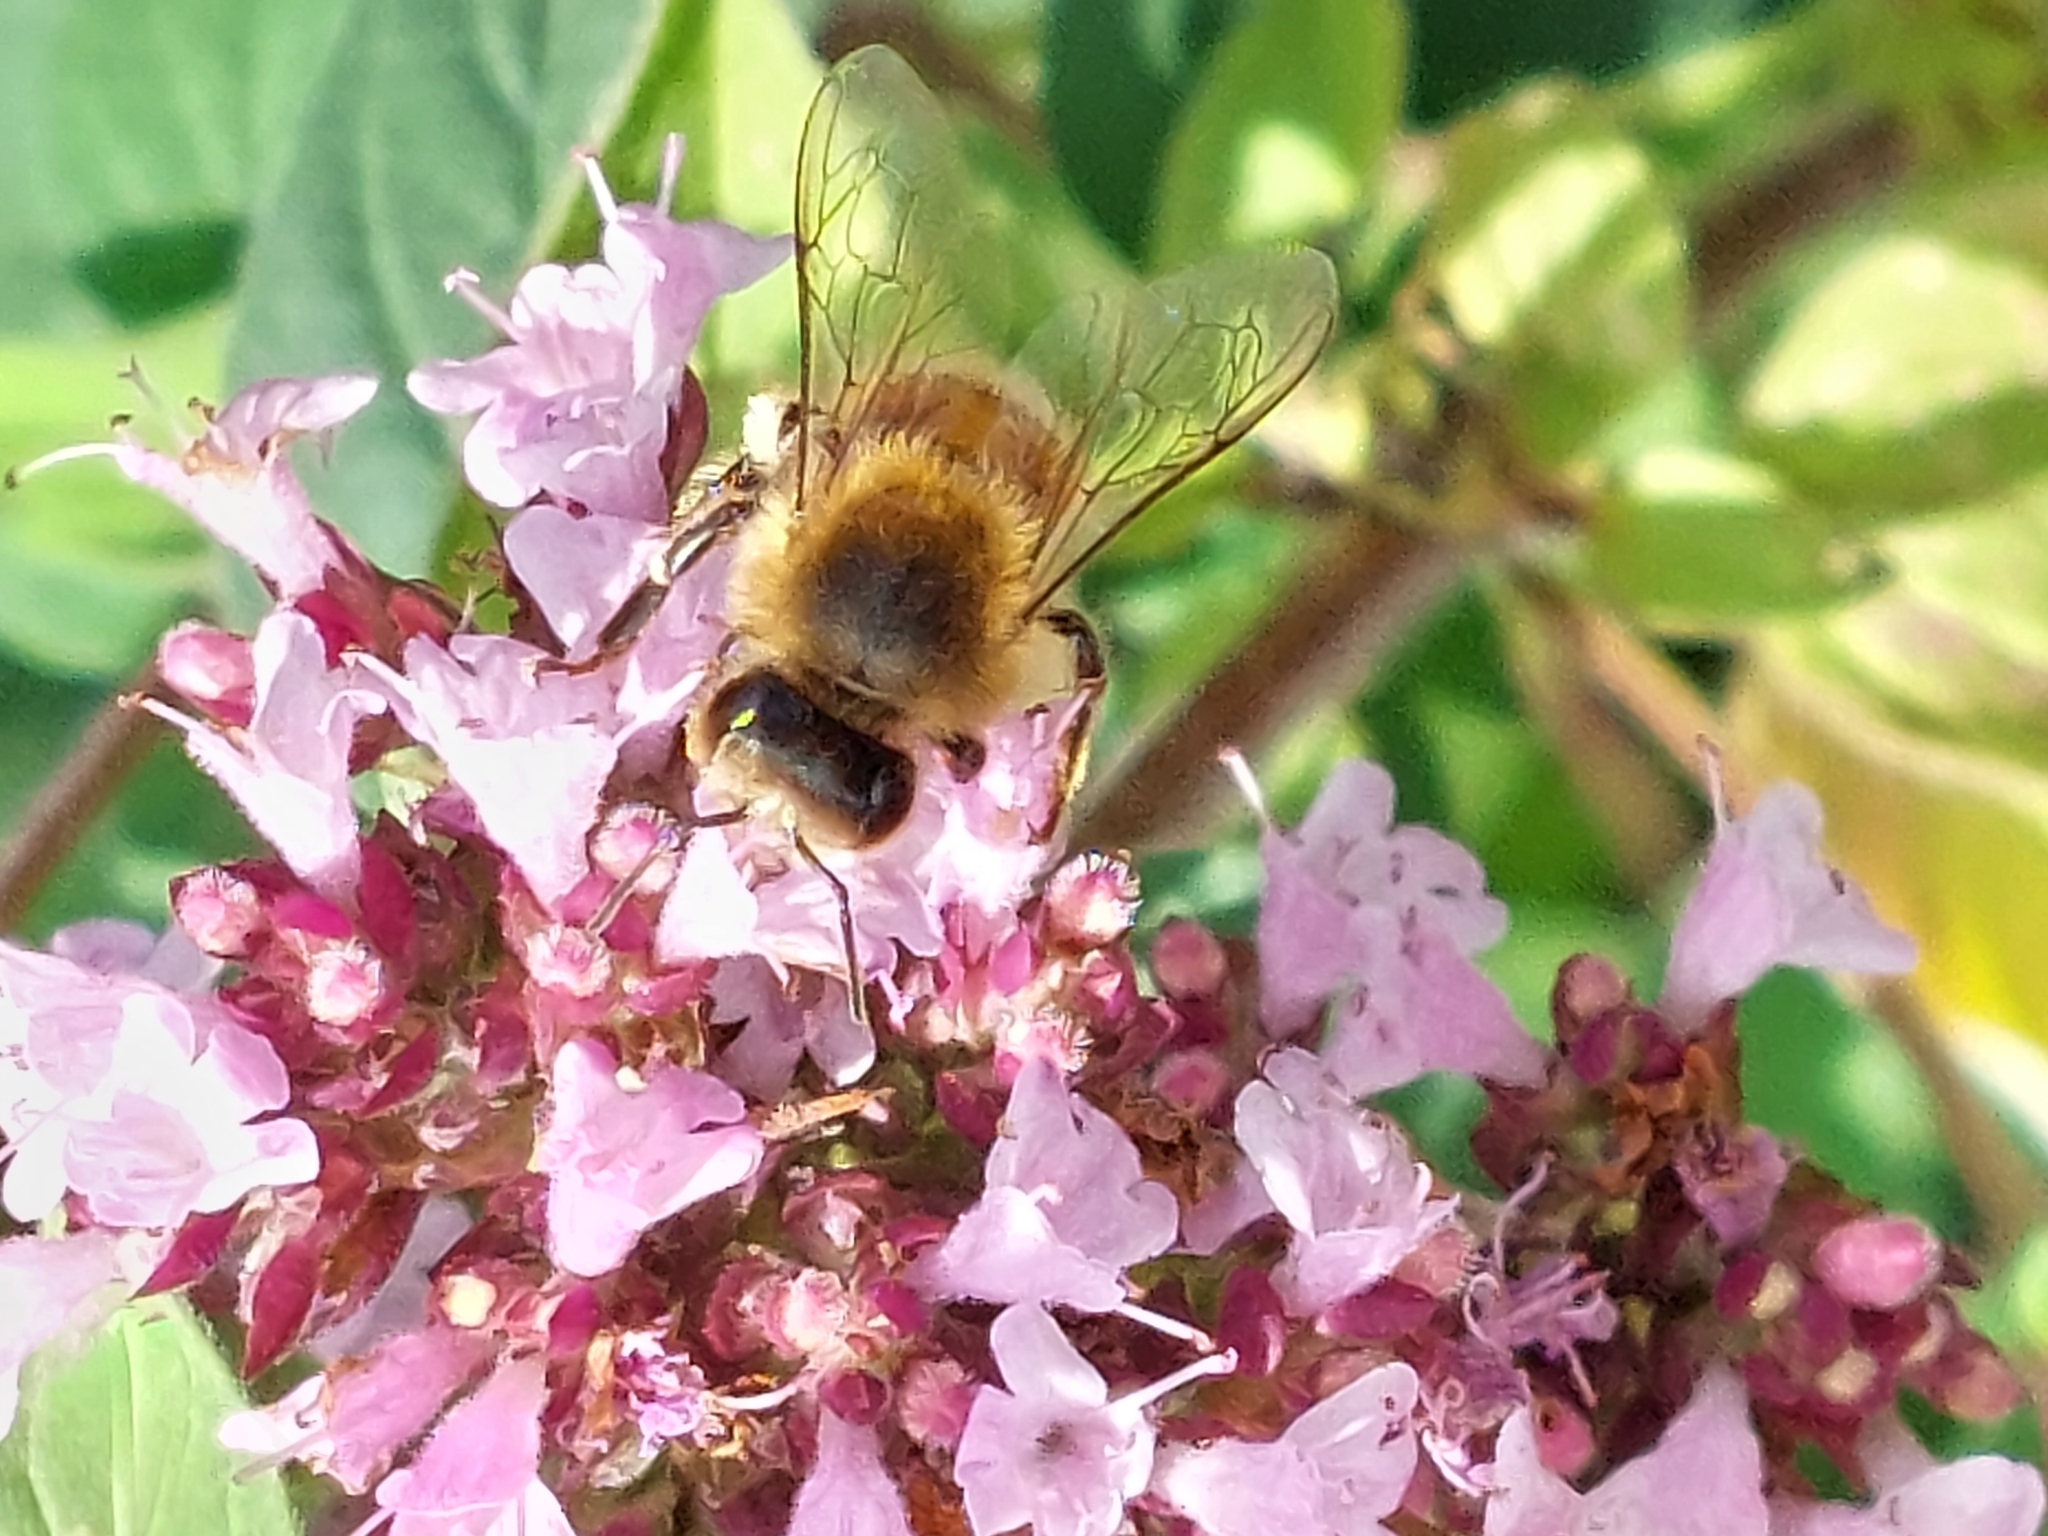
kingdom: Animalia
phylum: Arthropoda
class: Insecta
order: Hymenoptera
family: Apidae
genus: Apis
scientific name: Apis mellifera
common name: Honey bee
